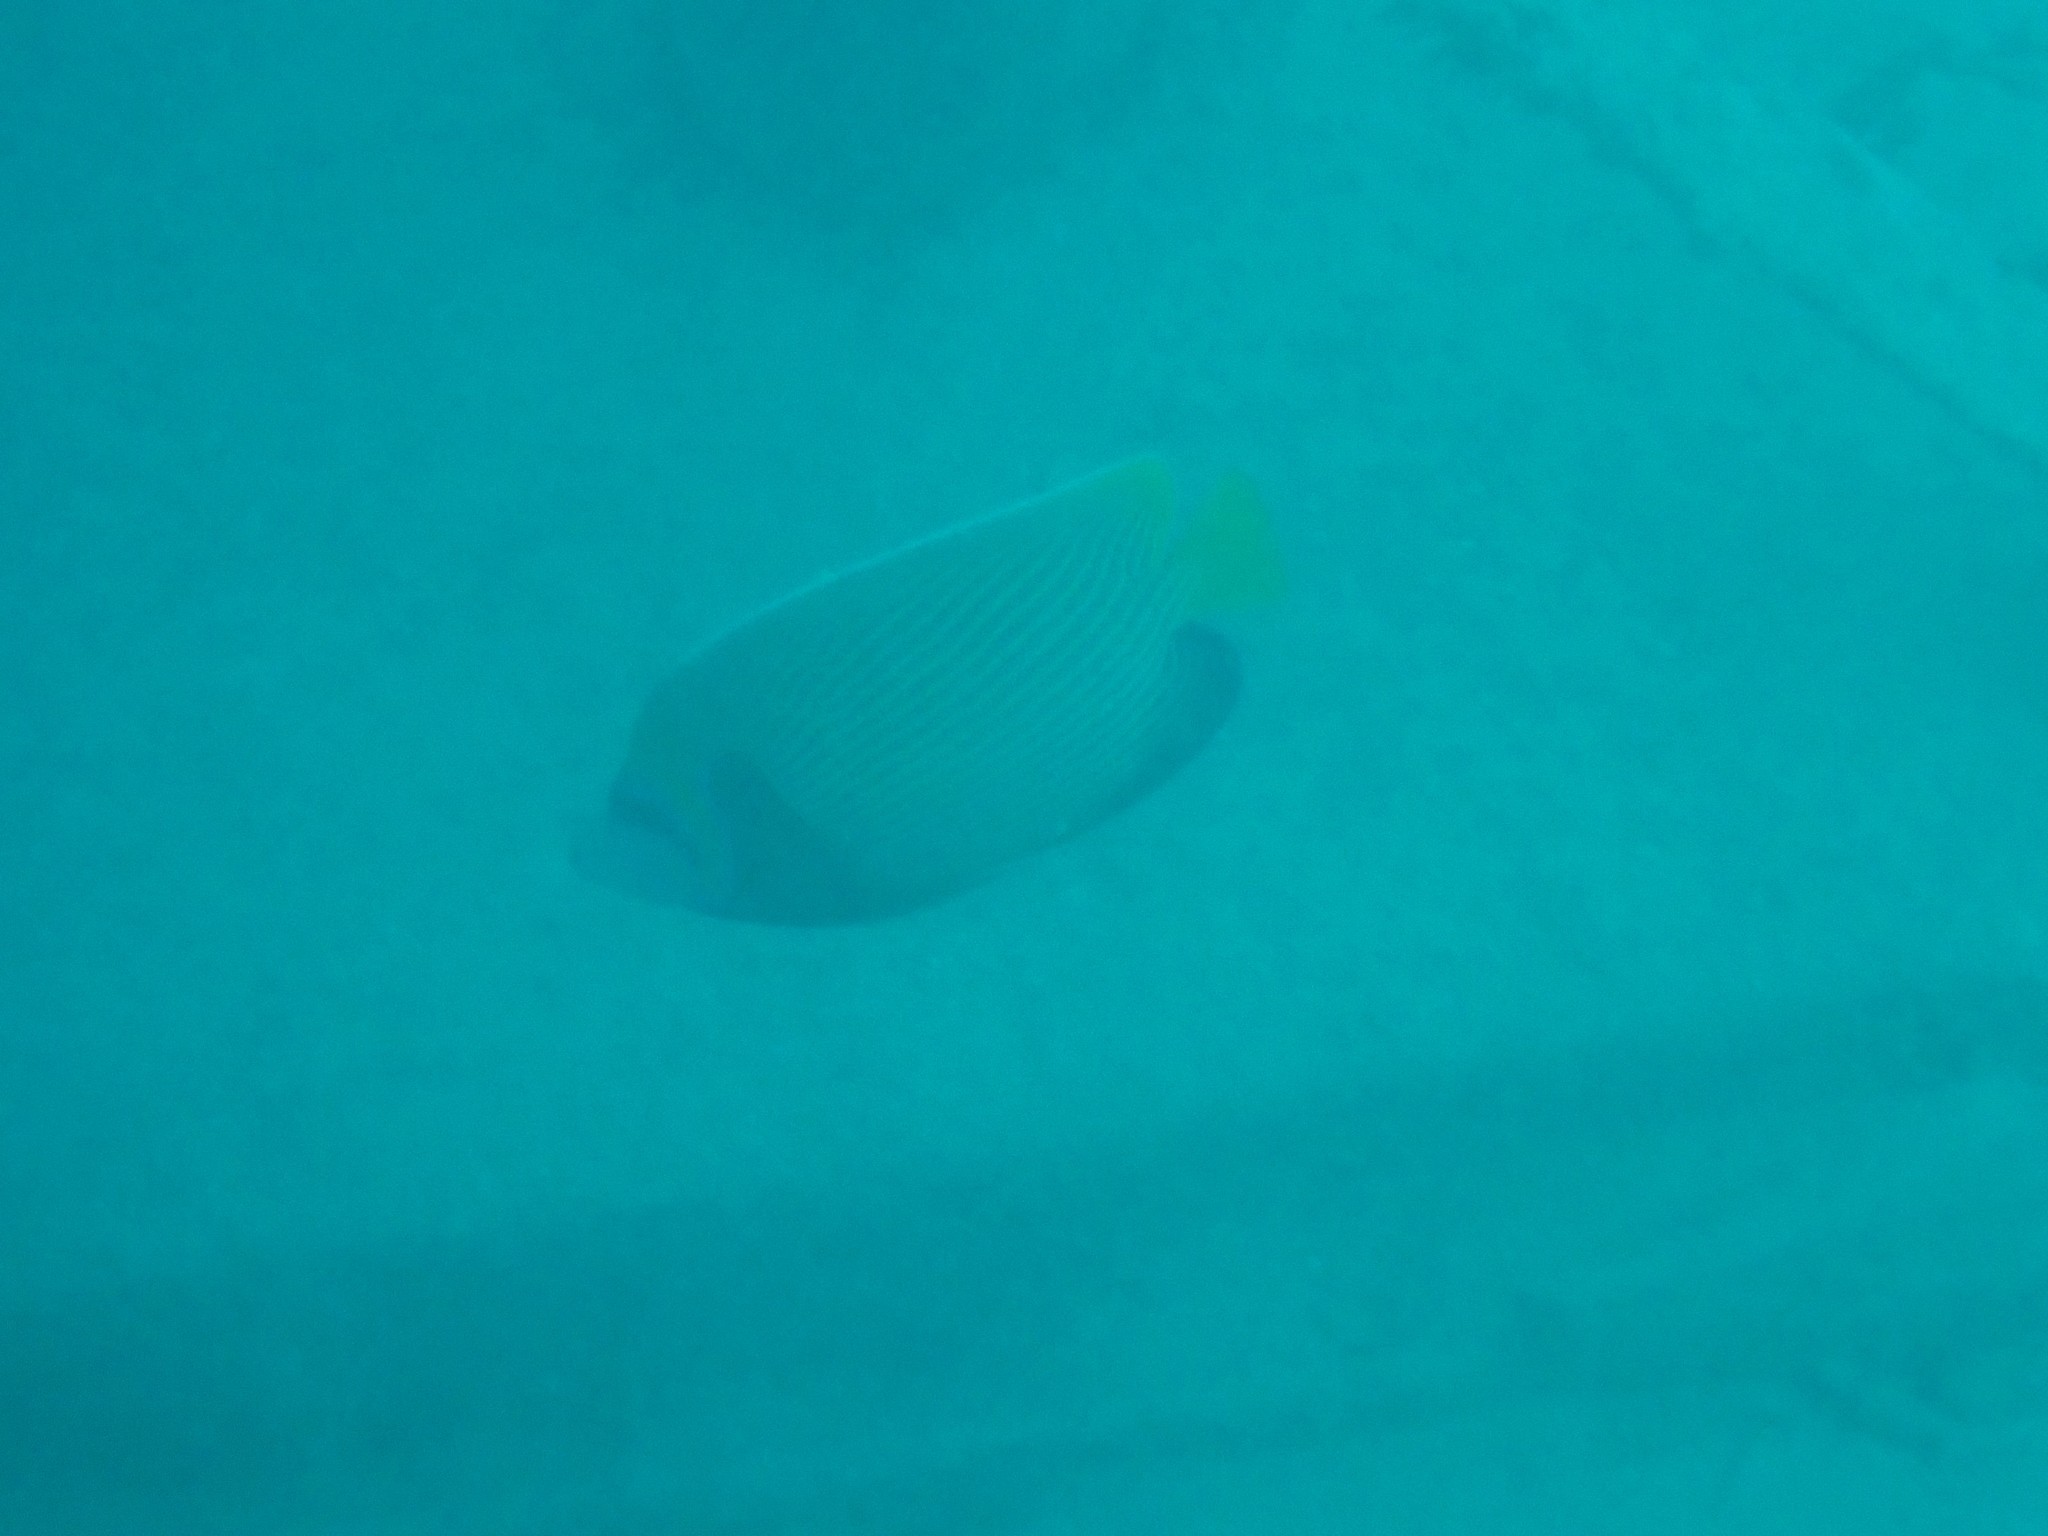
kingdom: Animalia
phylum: Chordata
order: Perciformes
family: Pomacanthidae
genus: Pomacanthus
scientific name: Pomacanthus imperator
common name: Emperor angelfish
